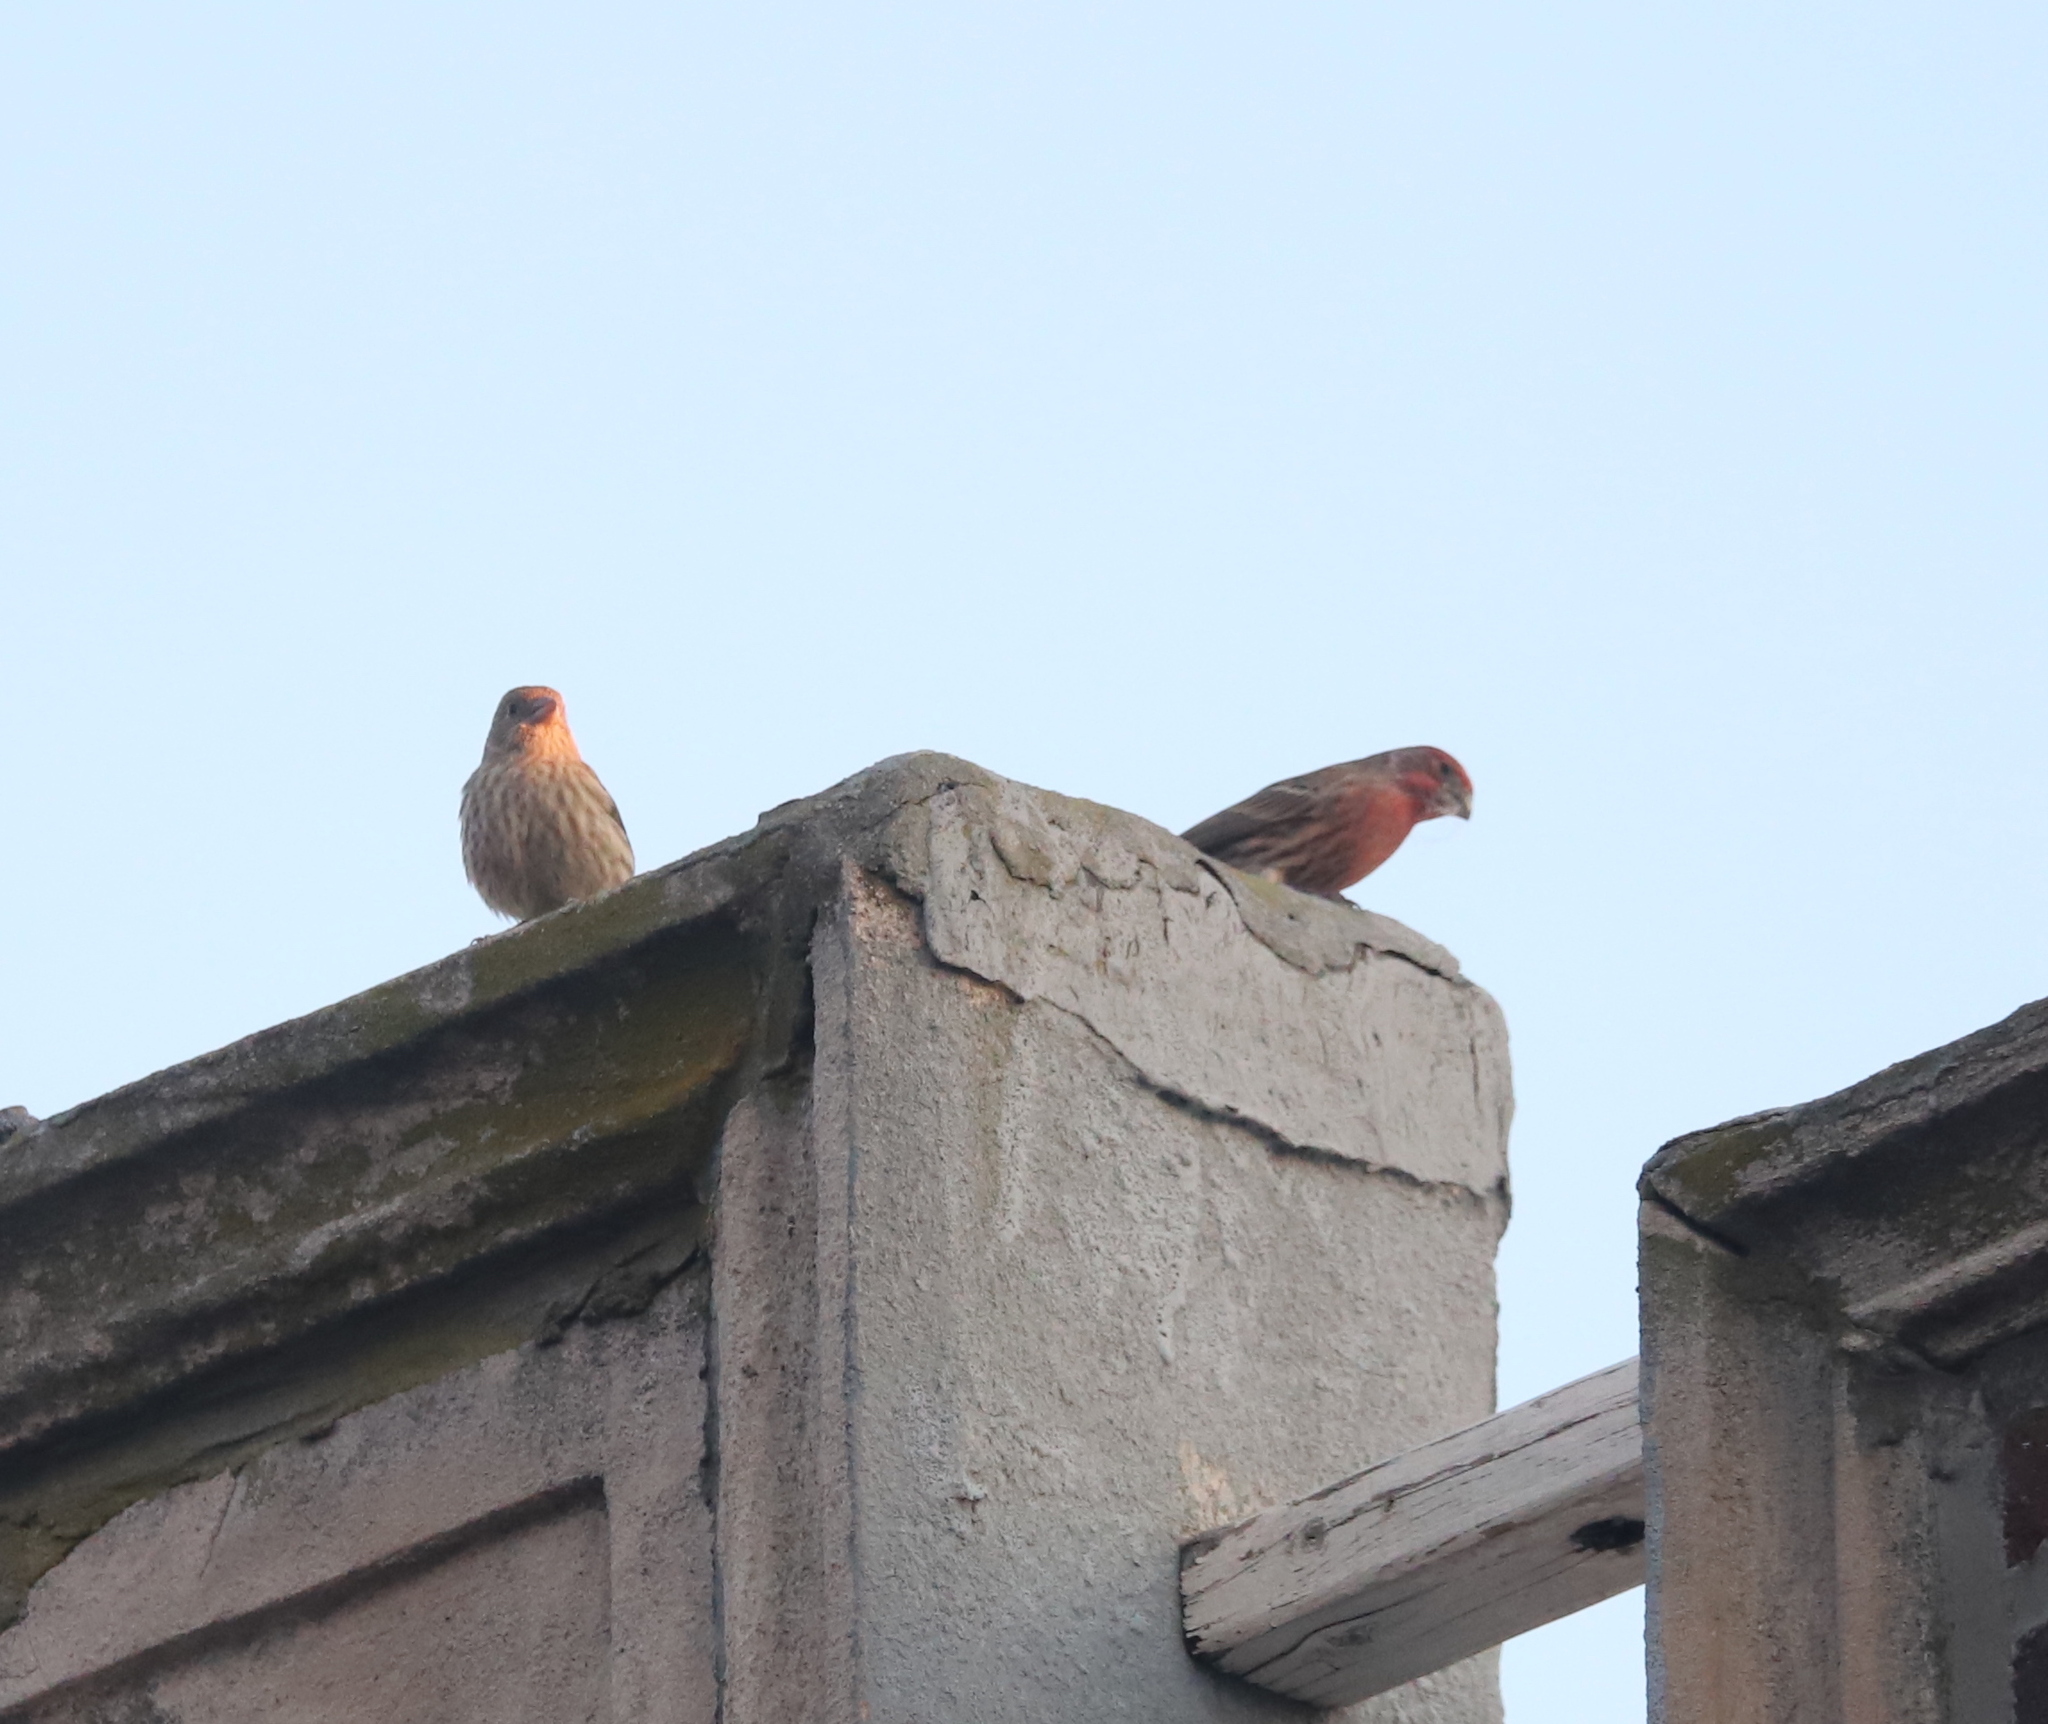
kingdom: Animalia
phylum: Chordata
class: Aves
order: Passeriformes
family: Fringillidae
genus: Haemorhous
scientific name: Haemorhous mexicanus
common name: House finch
